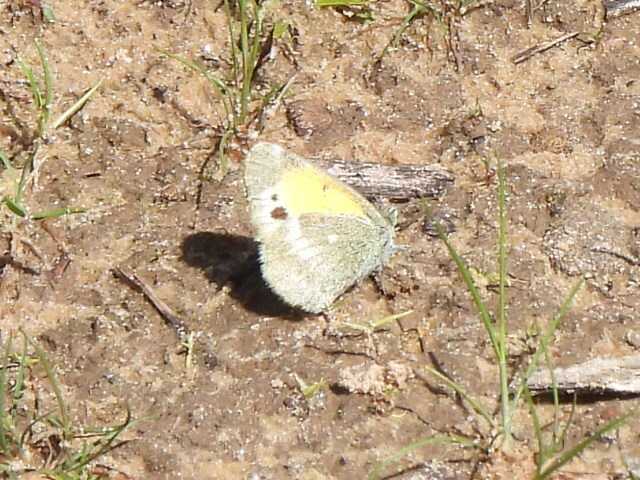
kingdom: Animalia
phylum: Arthropoda
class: Insecta
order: Lepidoptera
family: Pieridae
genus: Nathalis
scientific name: Nathalis iole
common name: Dainty sulphur
